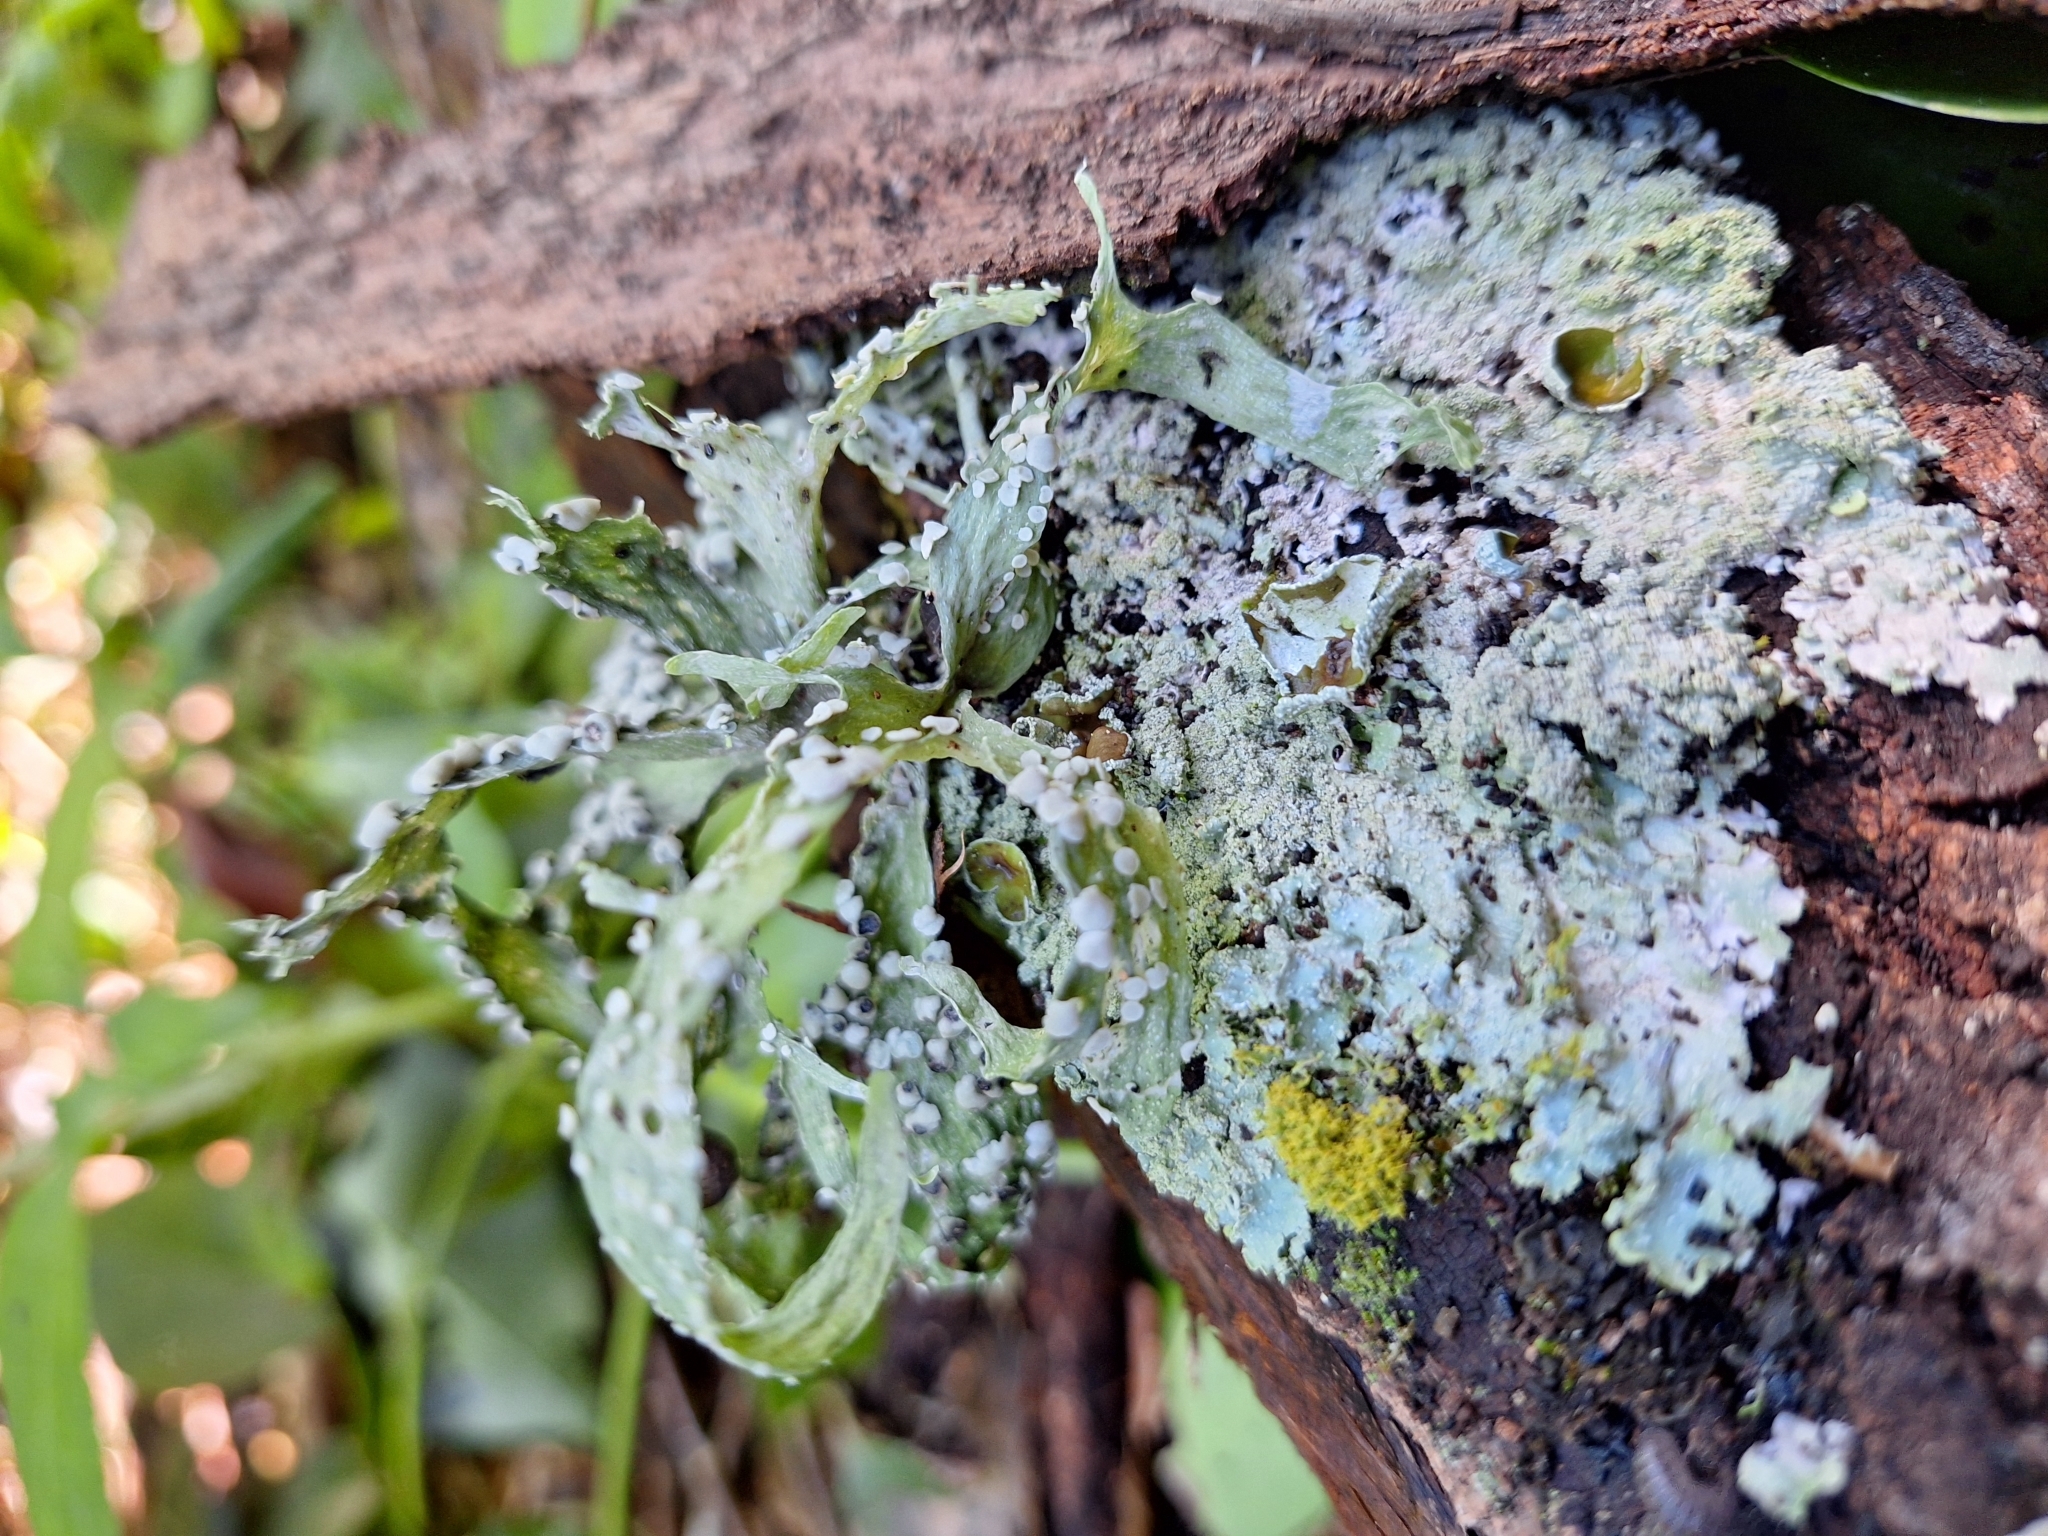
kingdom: Fungi
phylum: Ascomycota
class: Lecanoromycetes
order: Lecanorales
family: Ramalinaceae
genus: Ramalina
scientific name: Ramalina celastri
